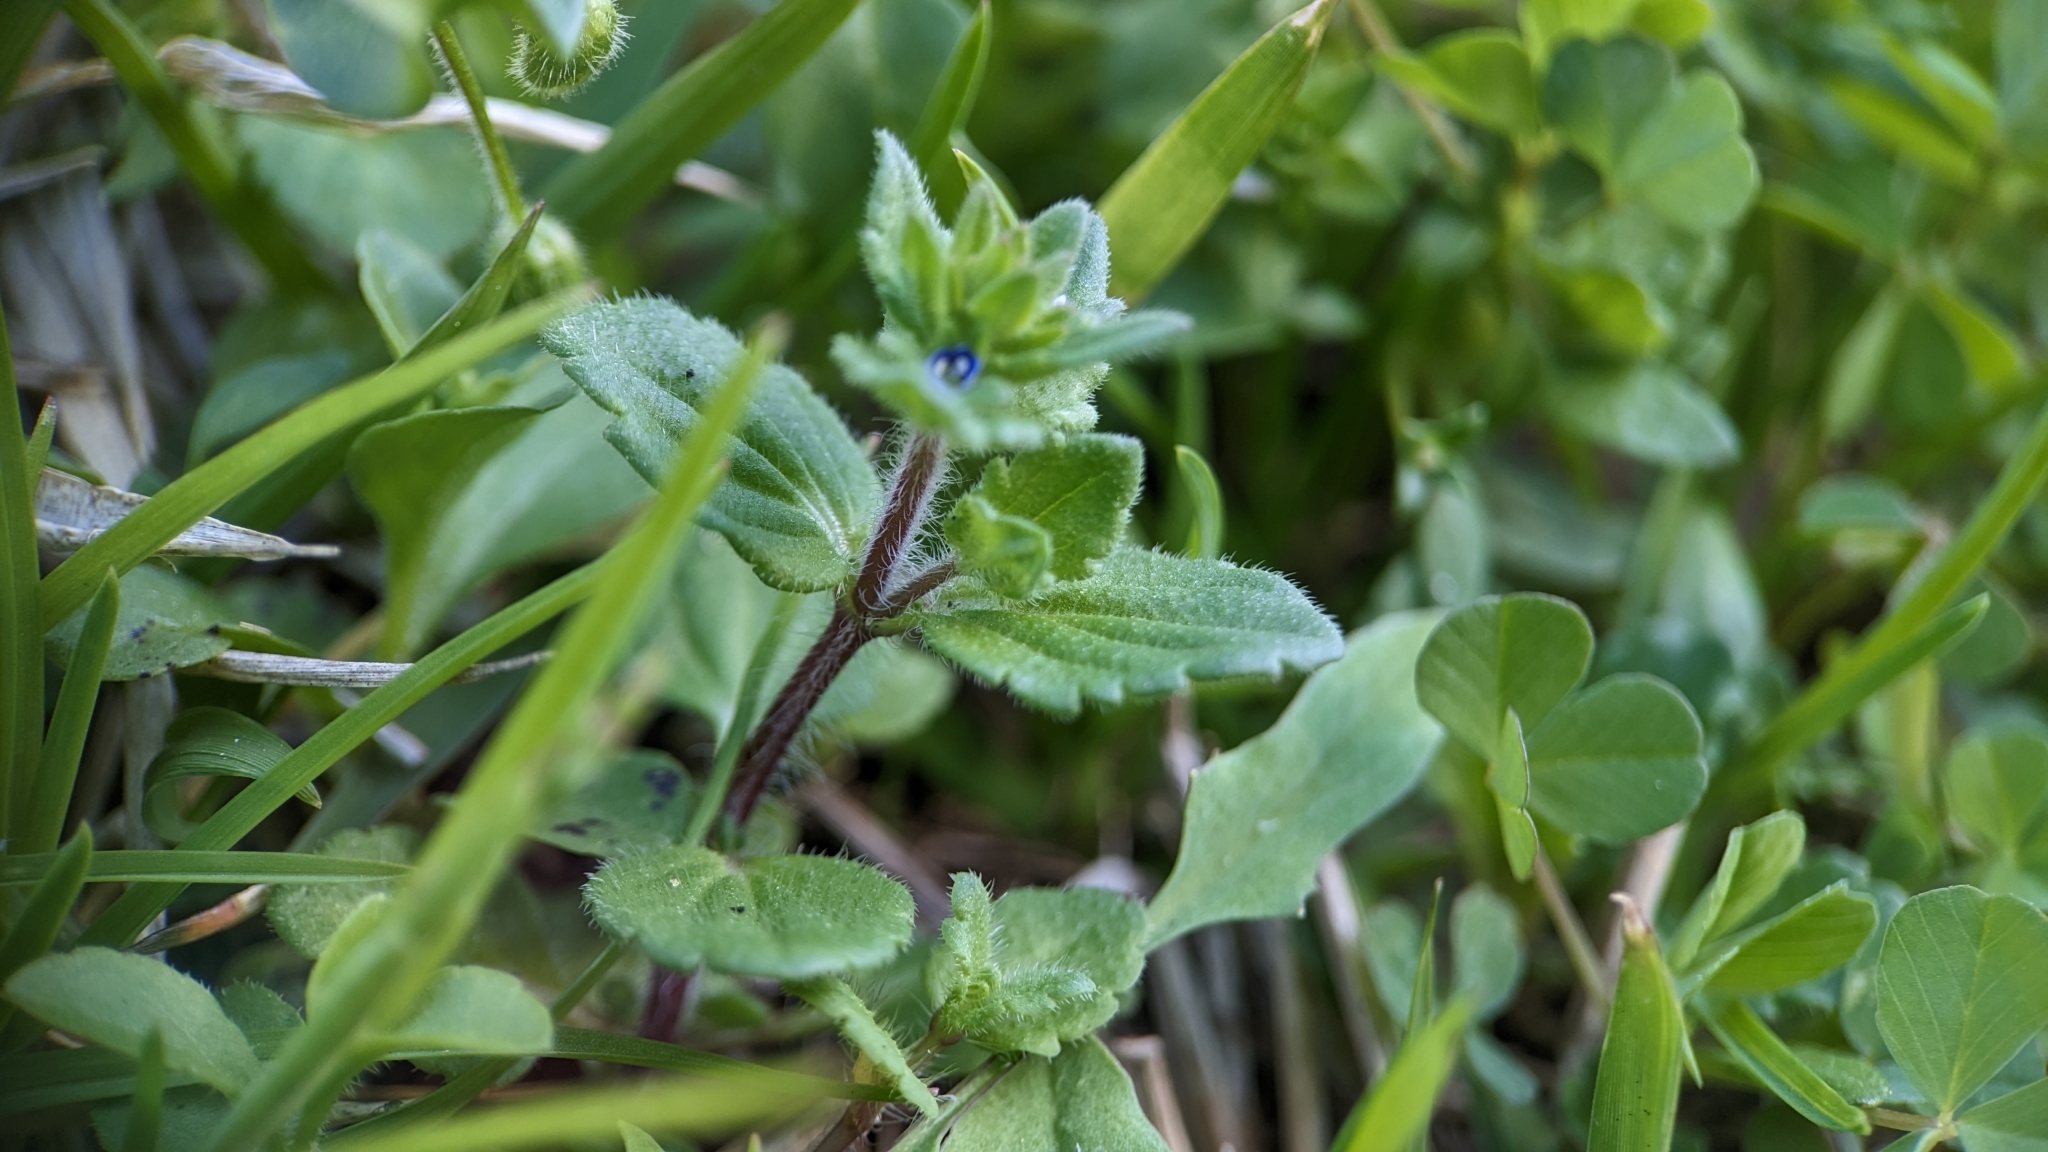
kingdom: Plantae
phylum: Tracheophyta
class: Magnoliopsida
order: Lamiales
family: Plantaginaceae
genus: Veronica
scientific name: Veronica arvensis
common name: Corn speedwell
